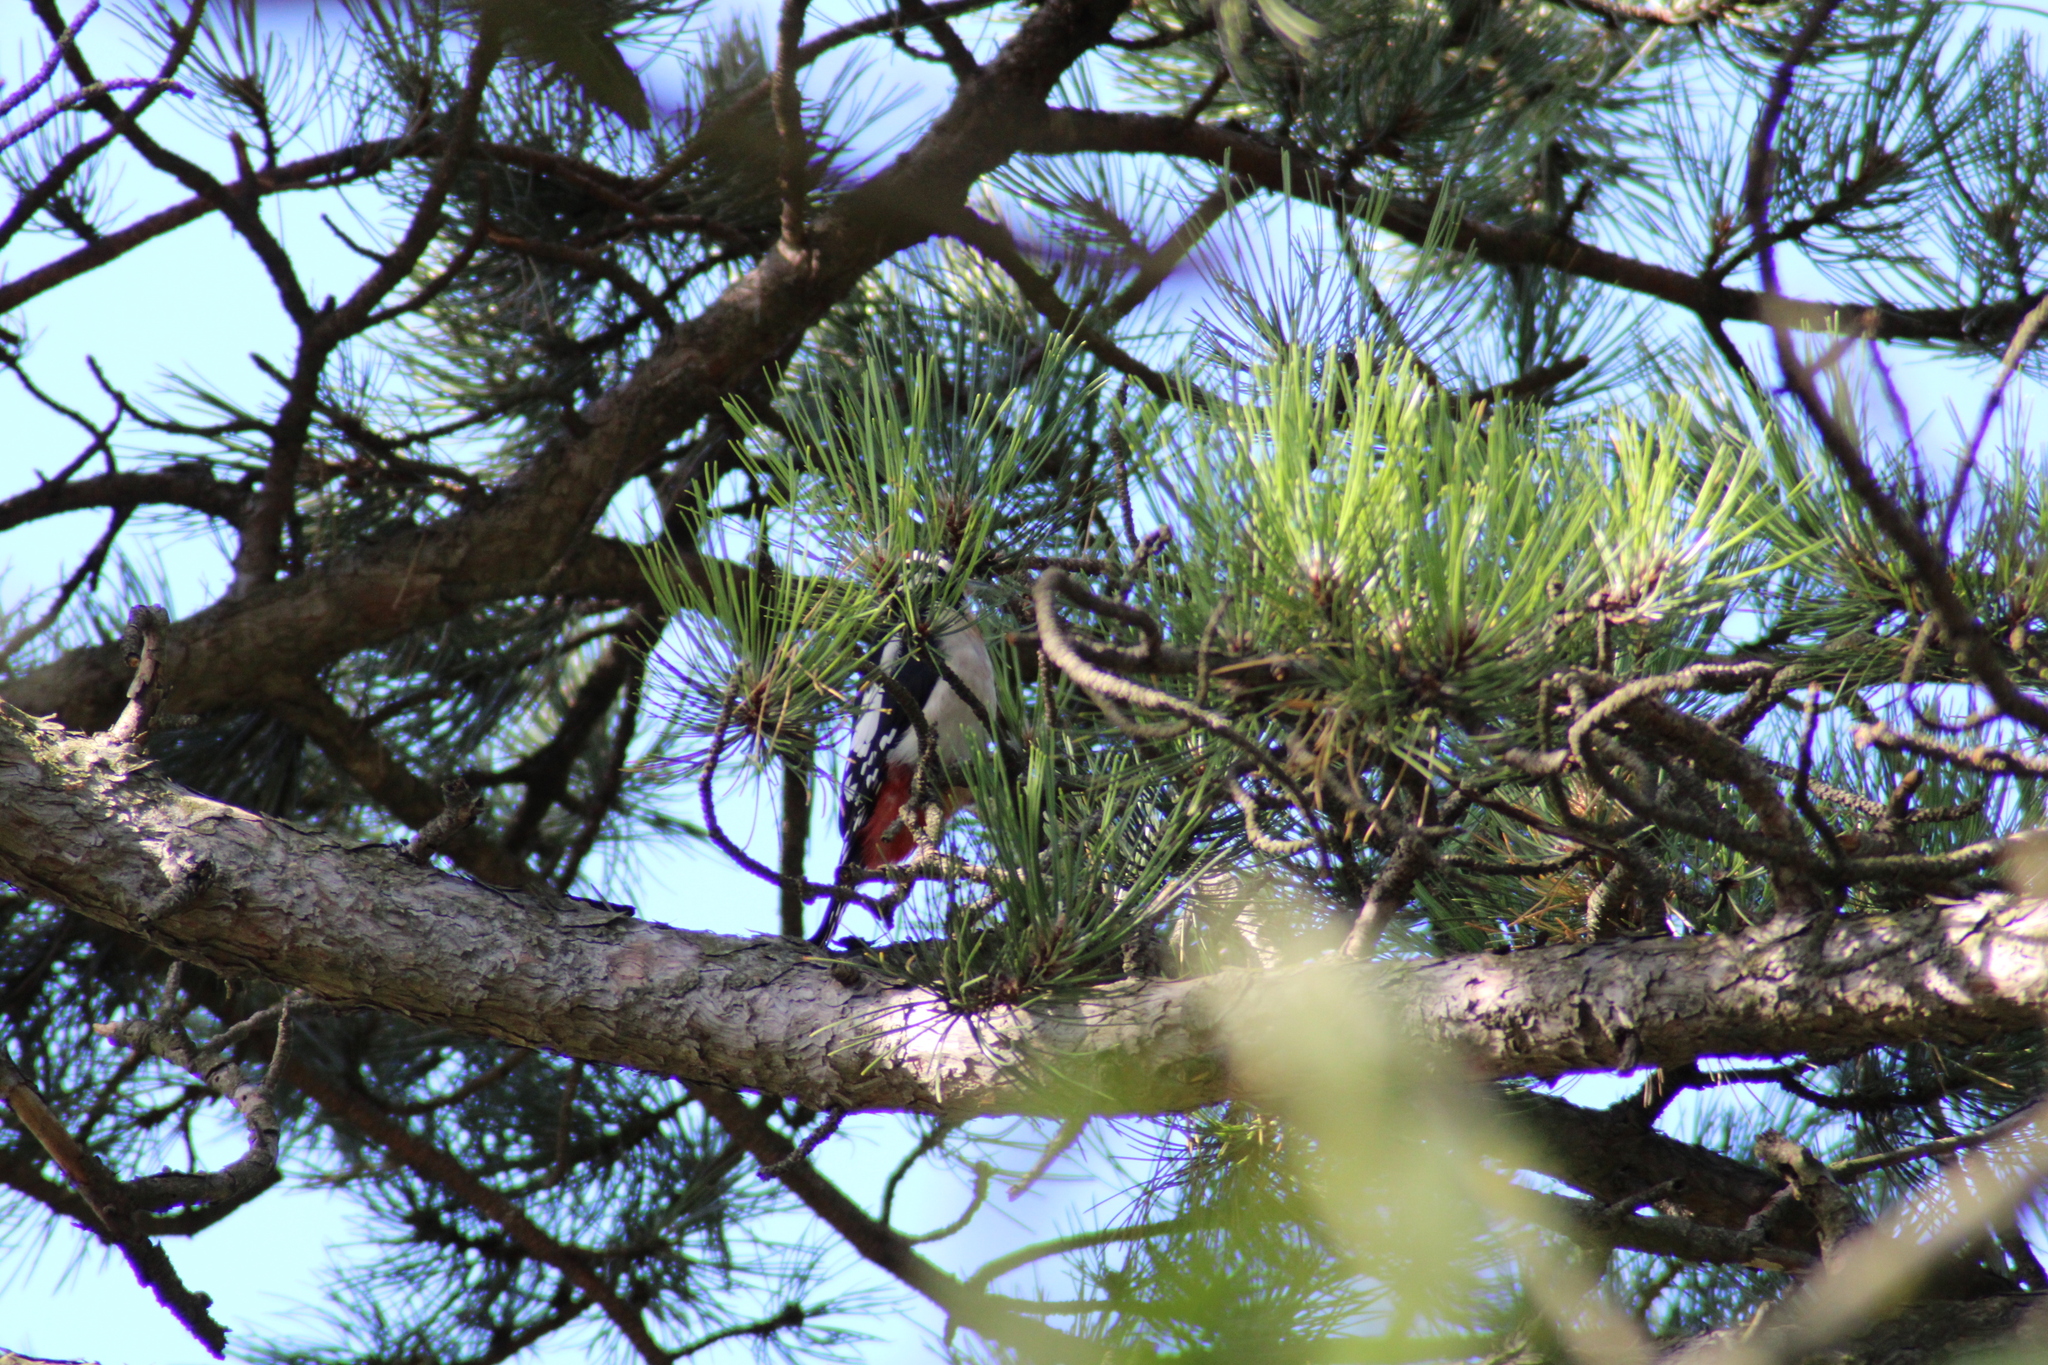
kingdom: Animalia
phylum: Chordata
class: Aves
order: Piciformes
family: Picidae
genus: Dendrocopos
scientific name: Dendrocopos major
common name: Great spotted woodpecker
